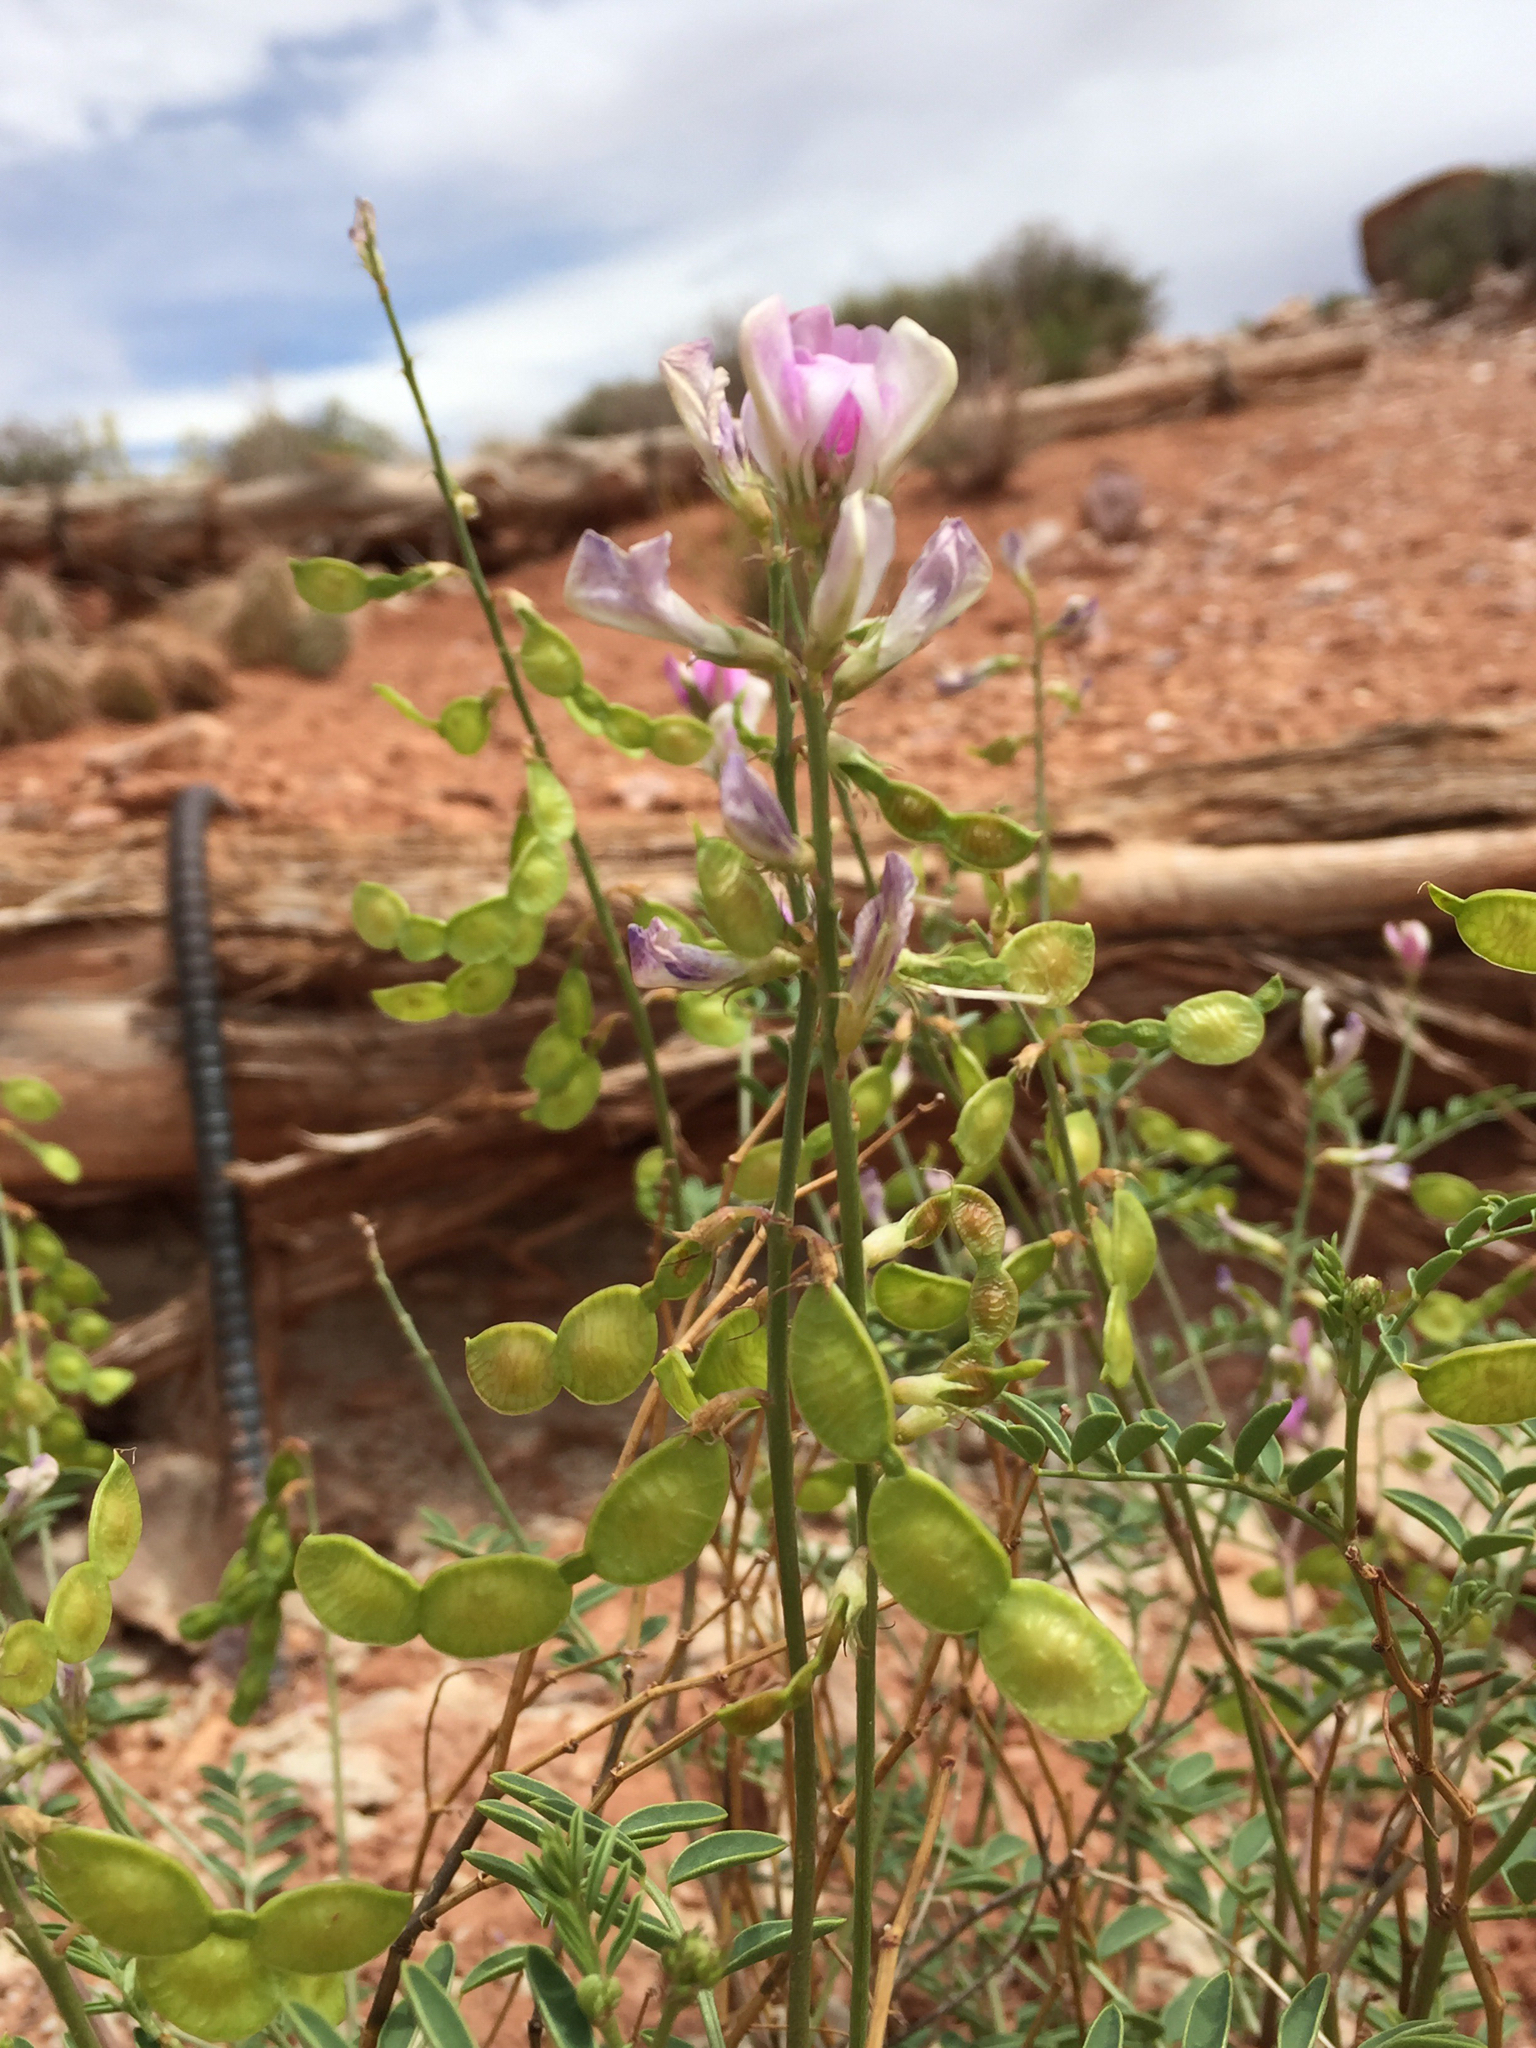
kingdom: Plantae
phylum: Tracheophyta
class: Magnoliopsida
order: Fabales
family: Fabaceae
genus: Hedysarum
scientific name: Hedysarum boreale
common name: Northern sweet-vetch
